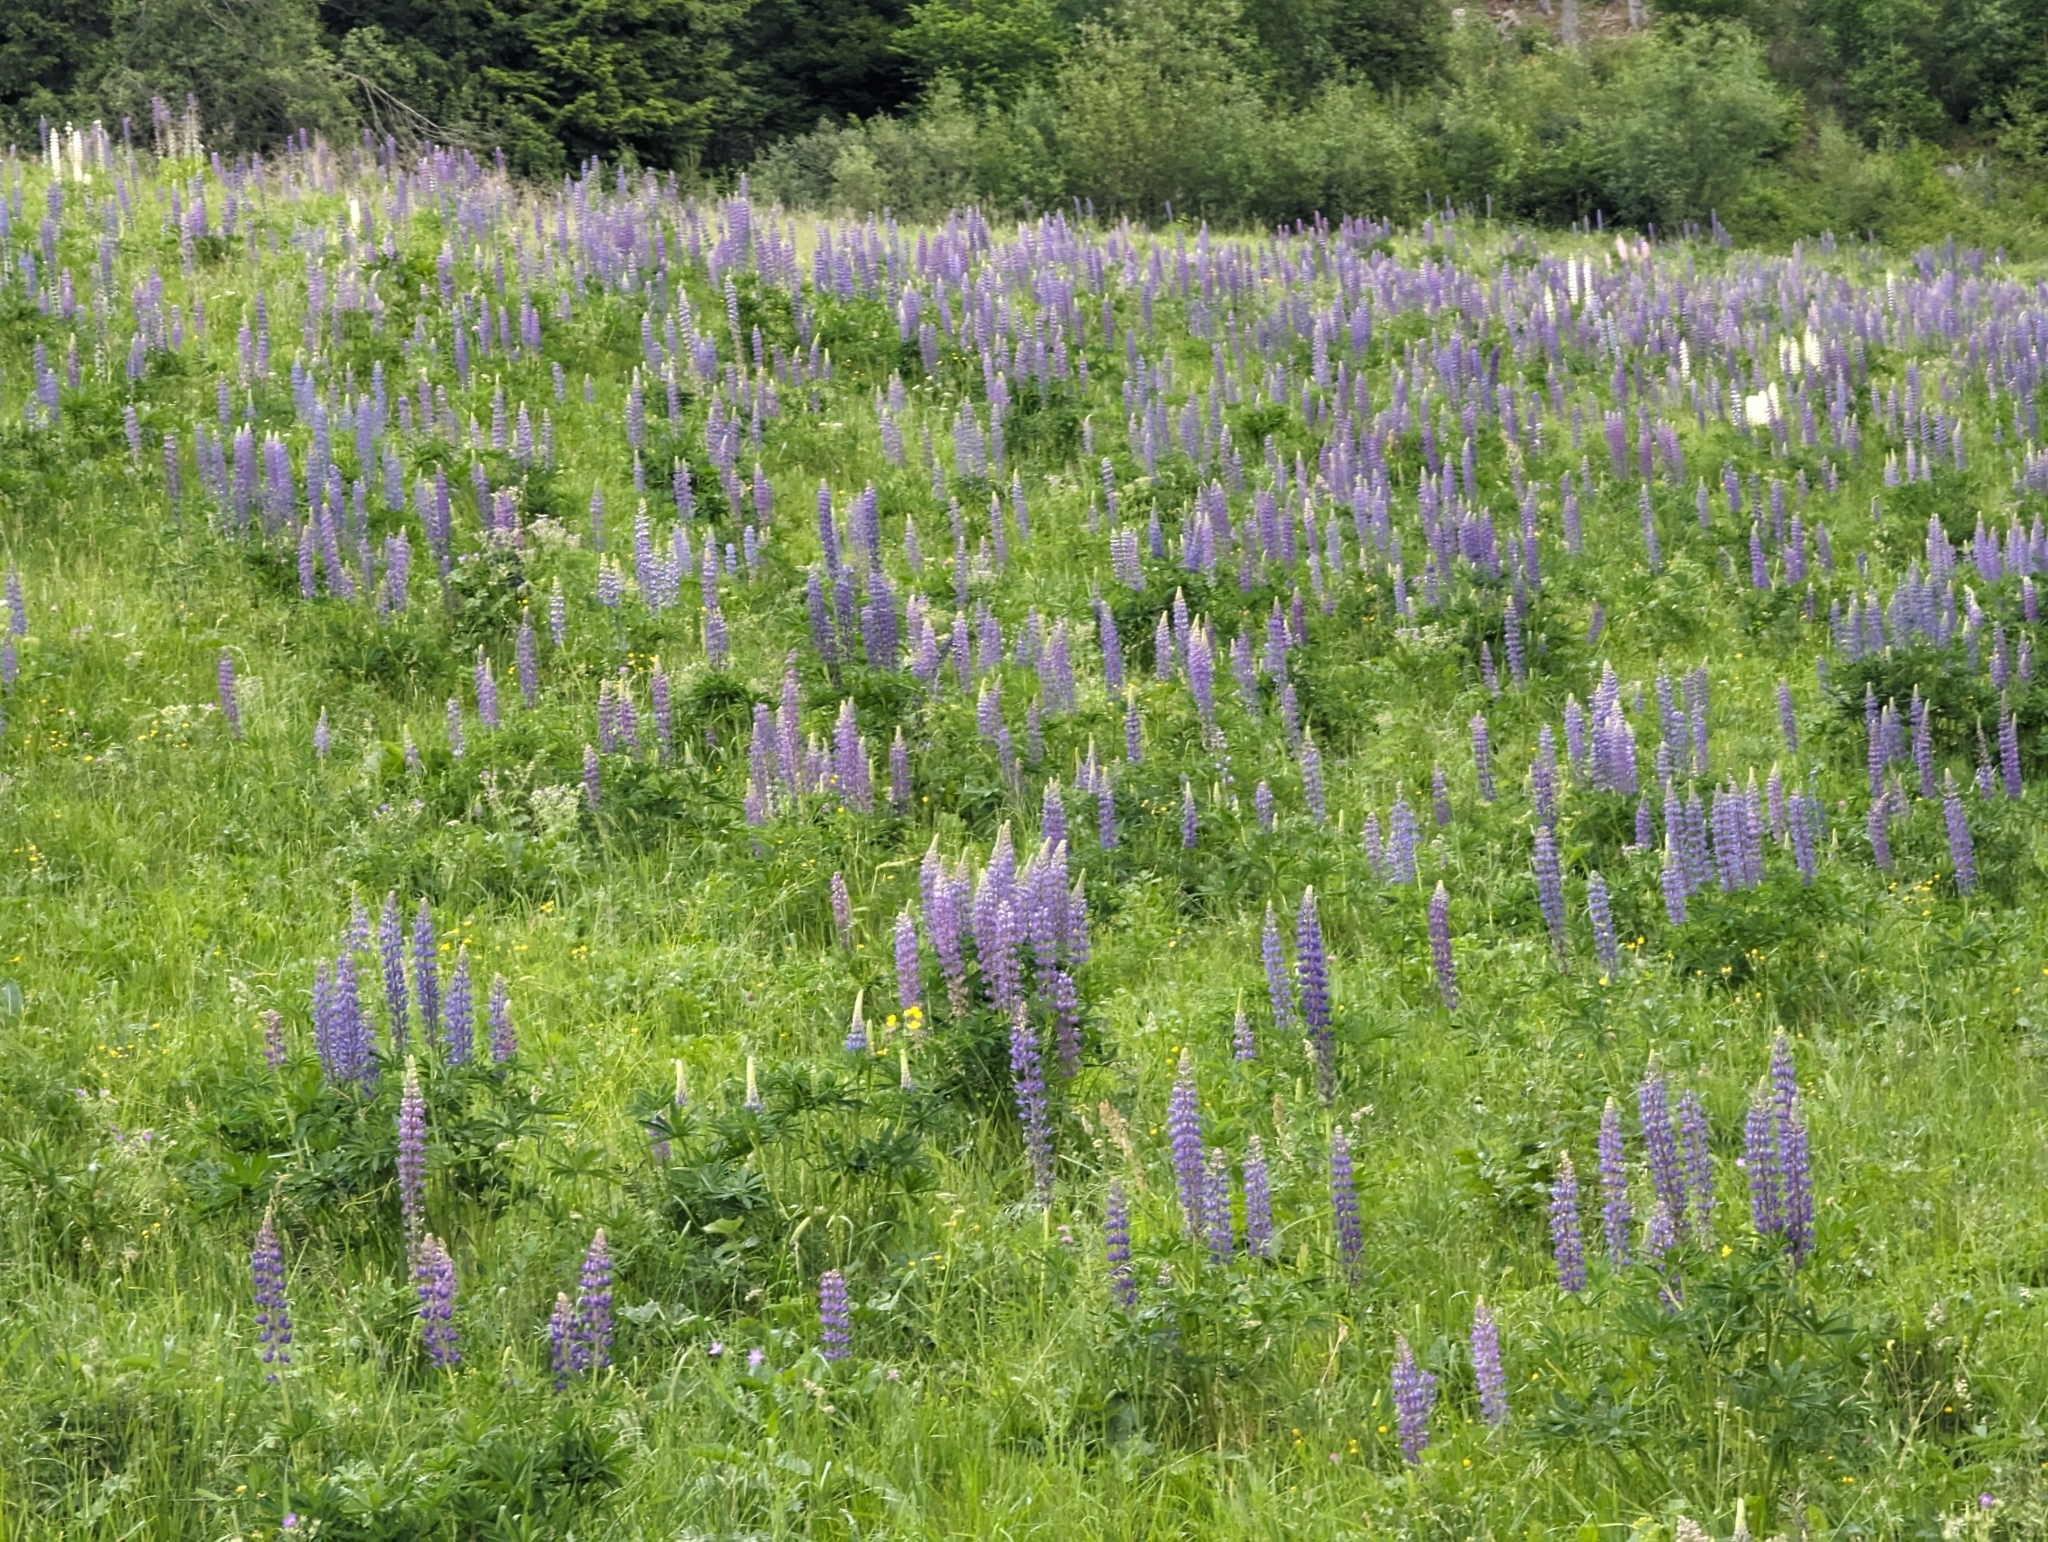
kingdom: Plantae
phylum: Tracheophyta
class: Magnoliopsida
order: Fabales
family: Fabaceae
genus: Lupinus
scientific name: Lupinus polyphyllus
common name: Garden lupin
